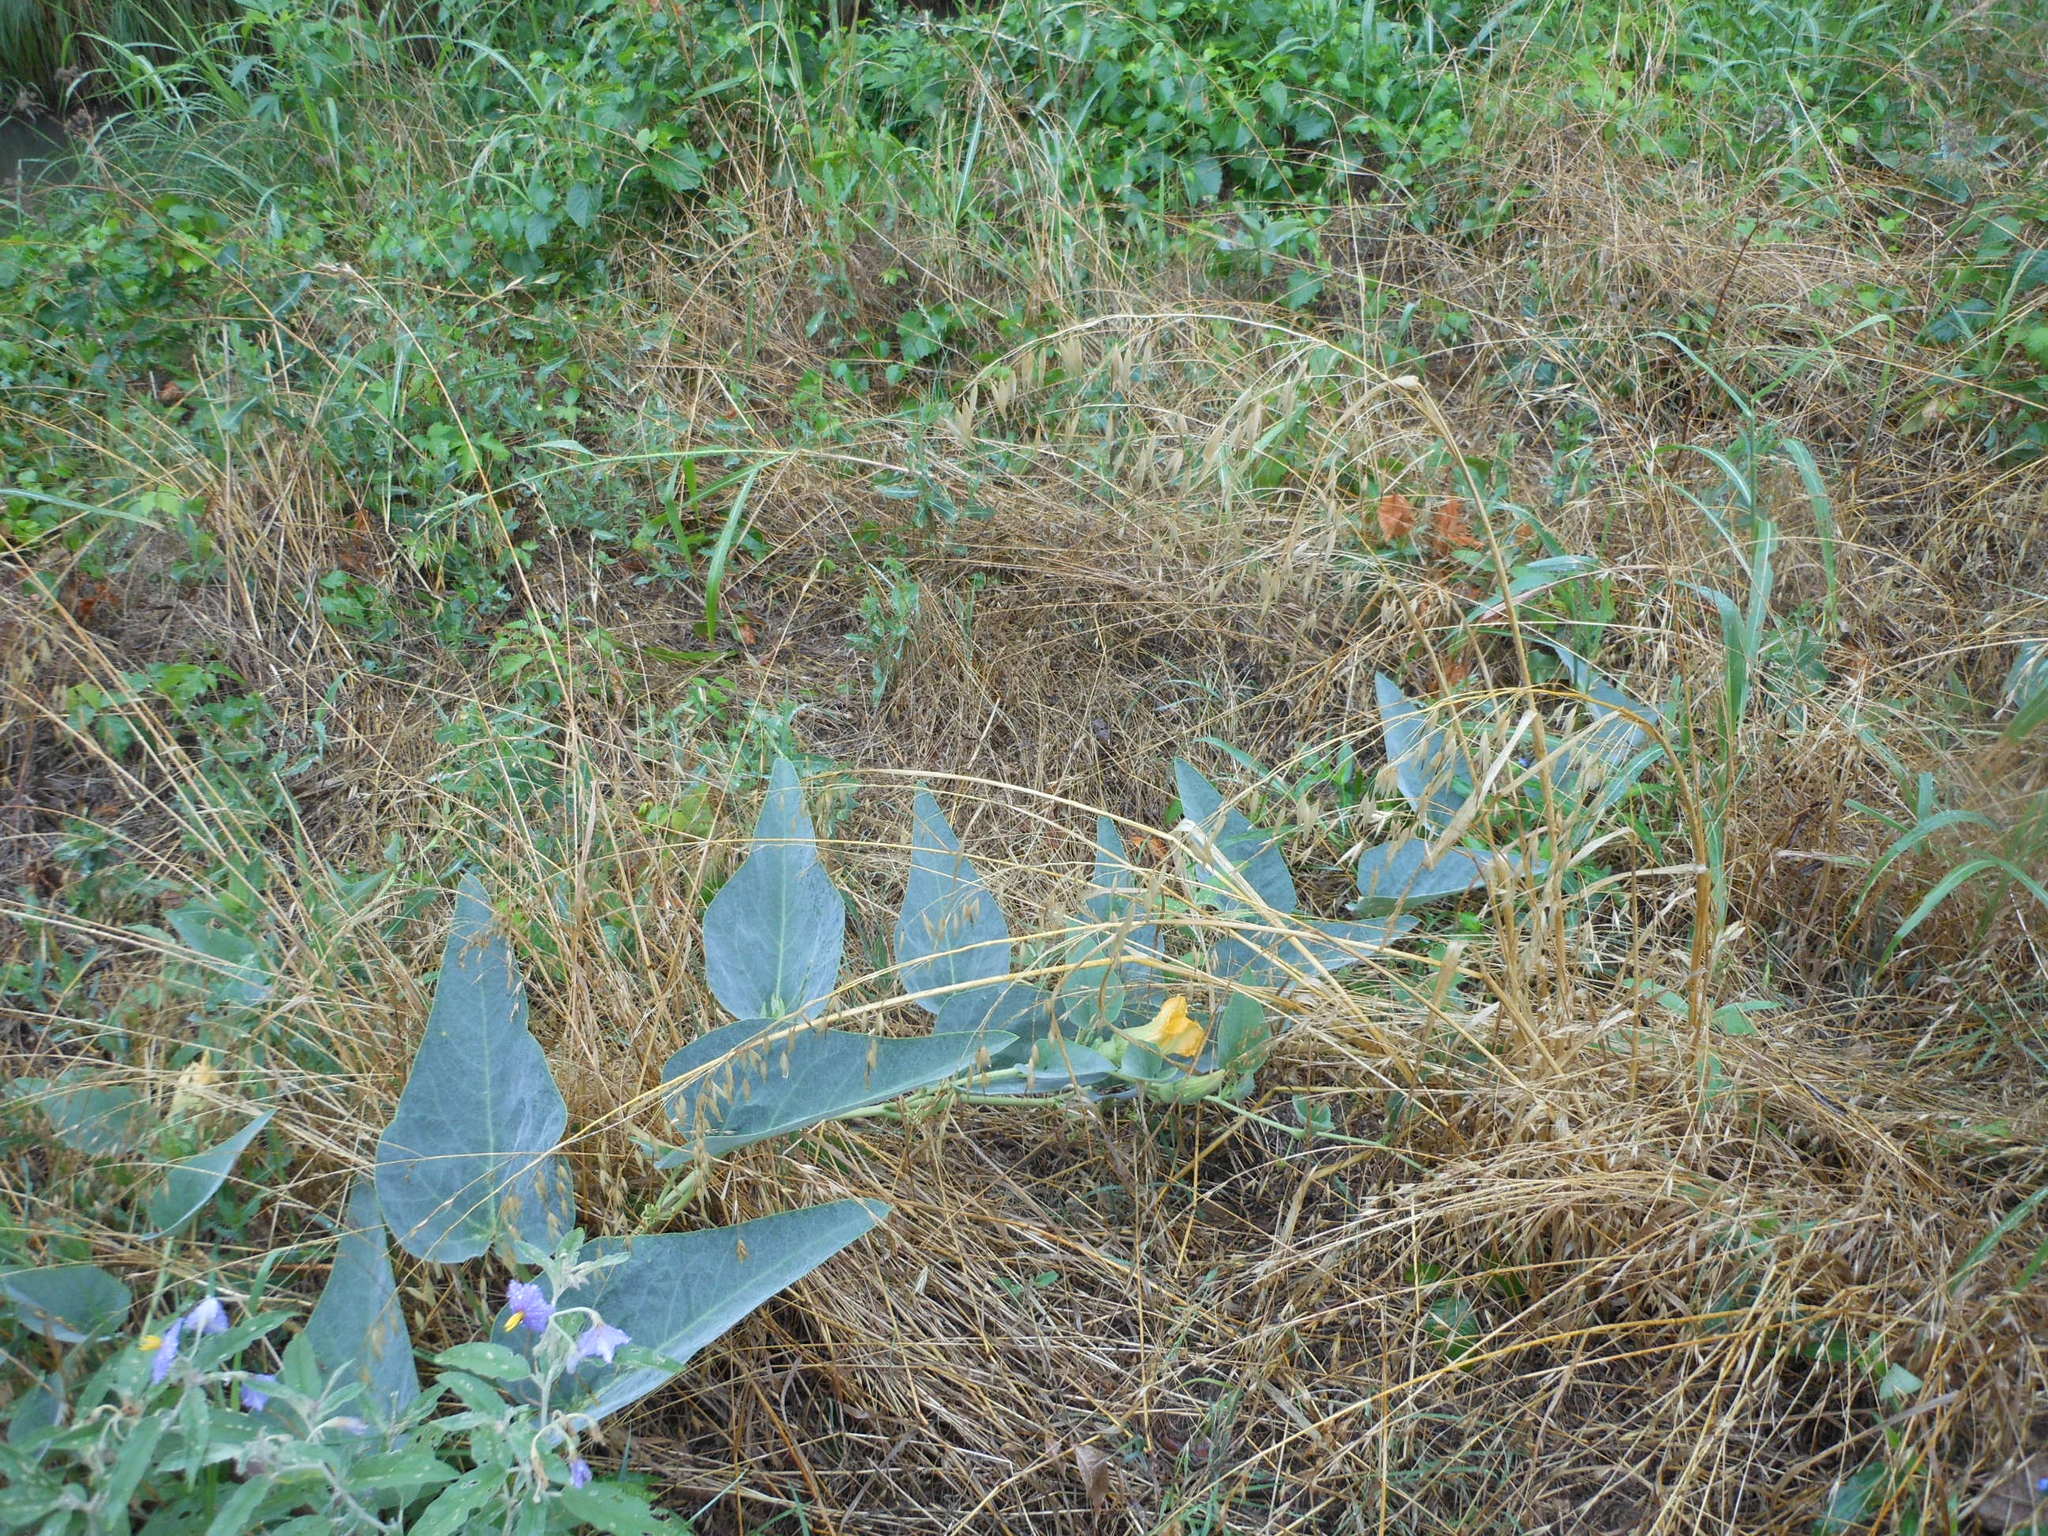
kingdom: Plantae
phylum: Tracheophyta
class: Magnoliopsida
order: Cucurbitales
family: Cucurbitaceae
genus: Cucurbita
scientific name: Cucurbita foetidissima
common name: Buffalo gourd
